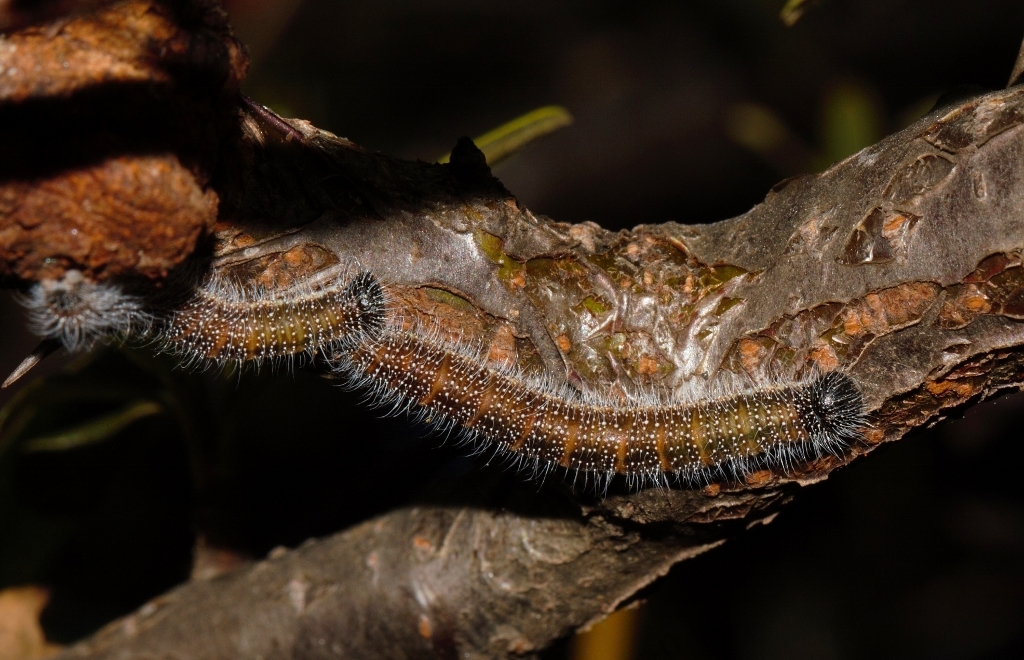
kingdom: Animalia
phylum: Arthropoda
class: Insecta
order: Lepidoptera
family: Pieridae
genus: Mylothris
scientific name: Mylothris agathina
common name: Eastern dotted border
